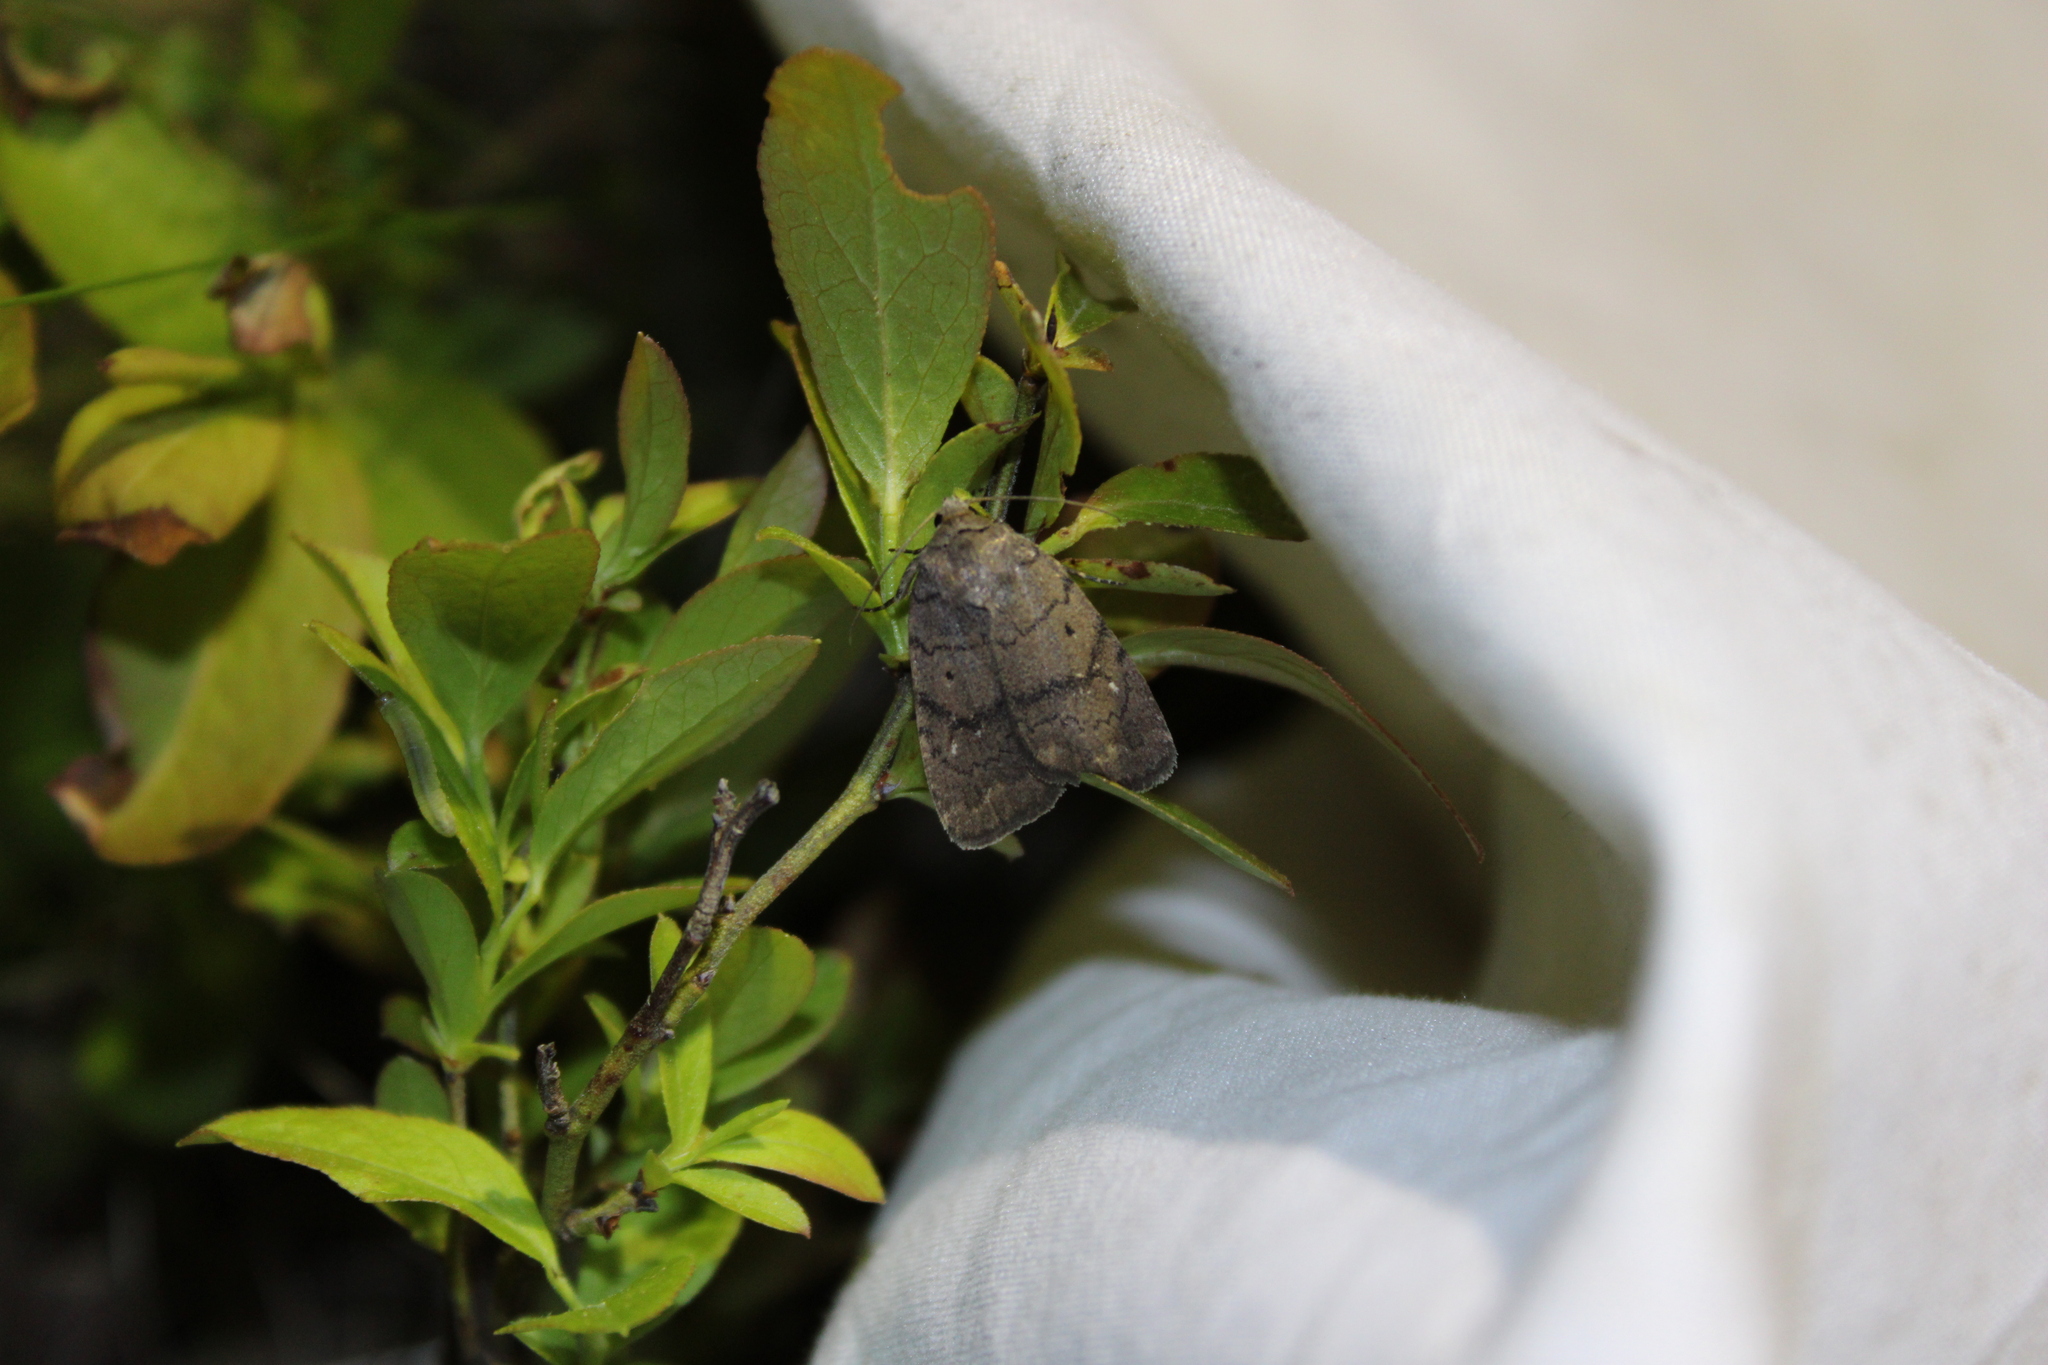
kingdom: Animalia
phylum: Arthropoda
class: Insecta
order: Lepidoptera
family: Noctuidae
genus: Athetis
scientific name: Athetis tarda
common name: Slowpoke moth
